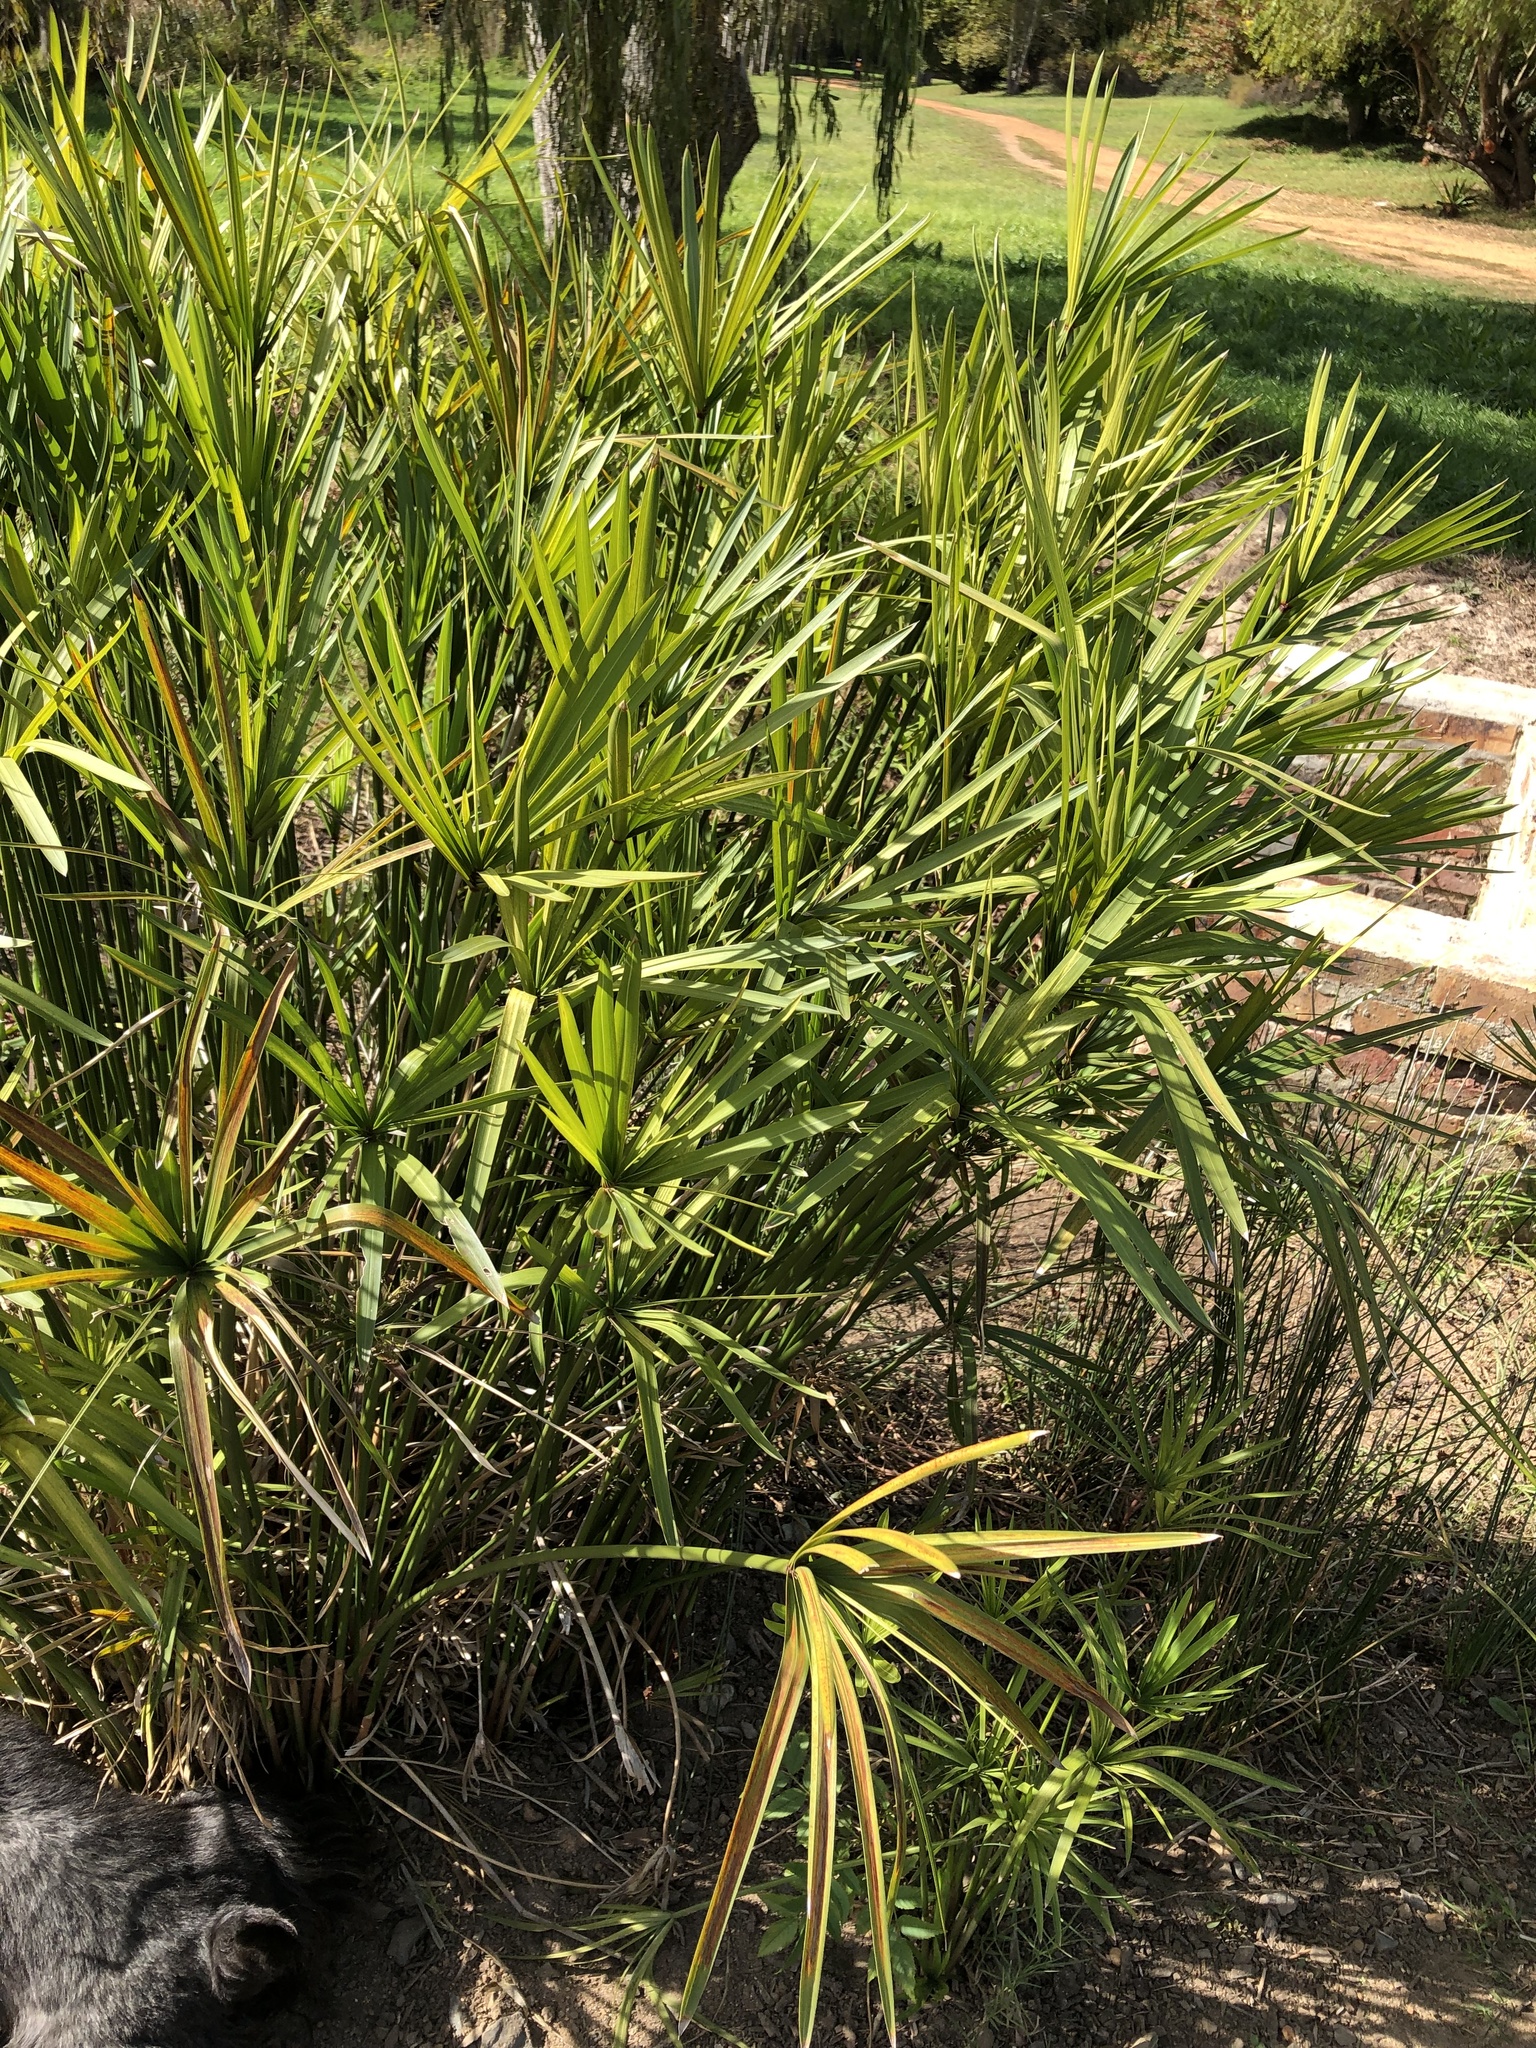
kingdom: Plantae
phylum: Tracheophyta
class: Liliopsida
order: Poales
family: Cyperaceae
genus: Cyperus
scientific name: Cyperus textilis
